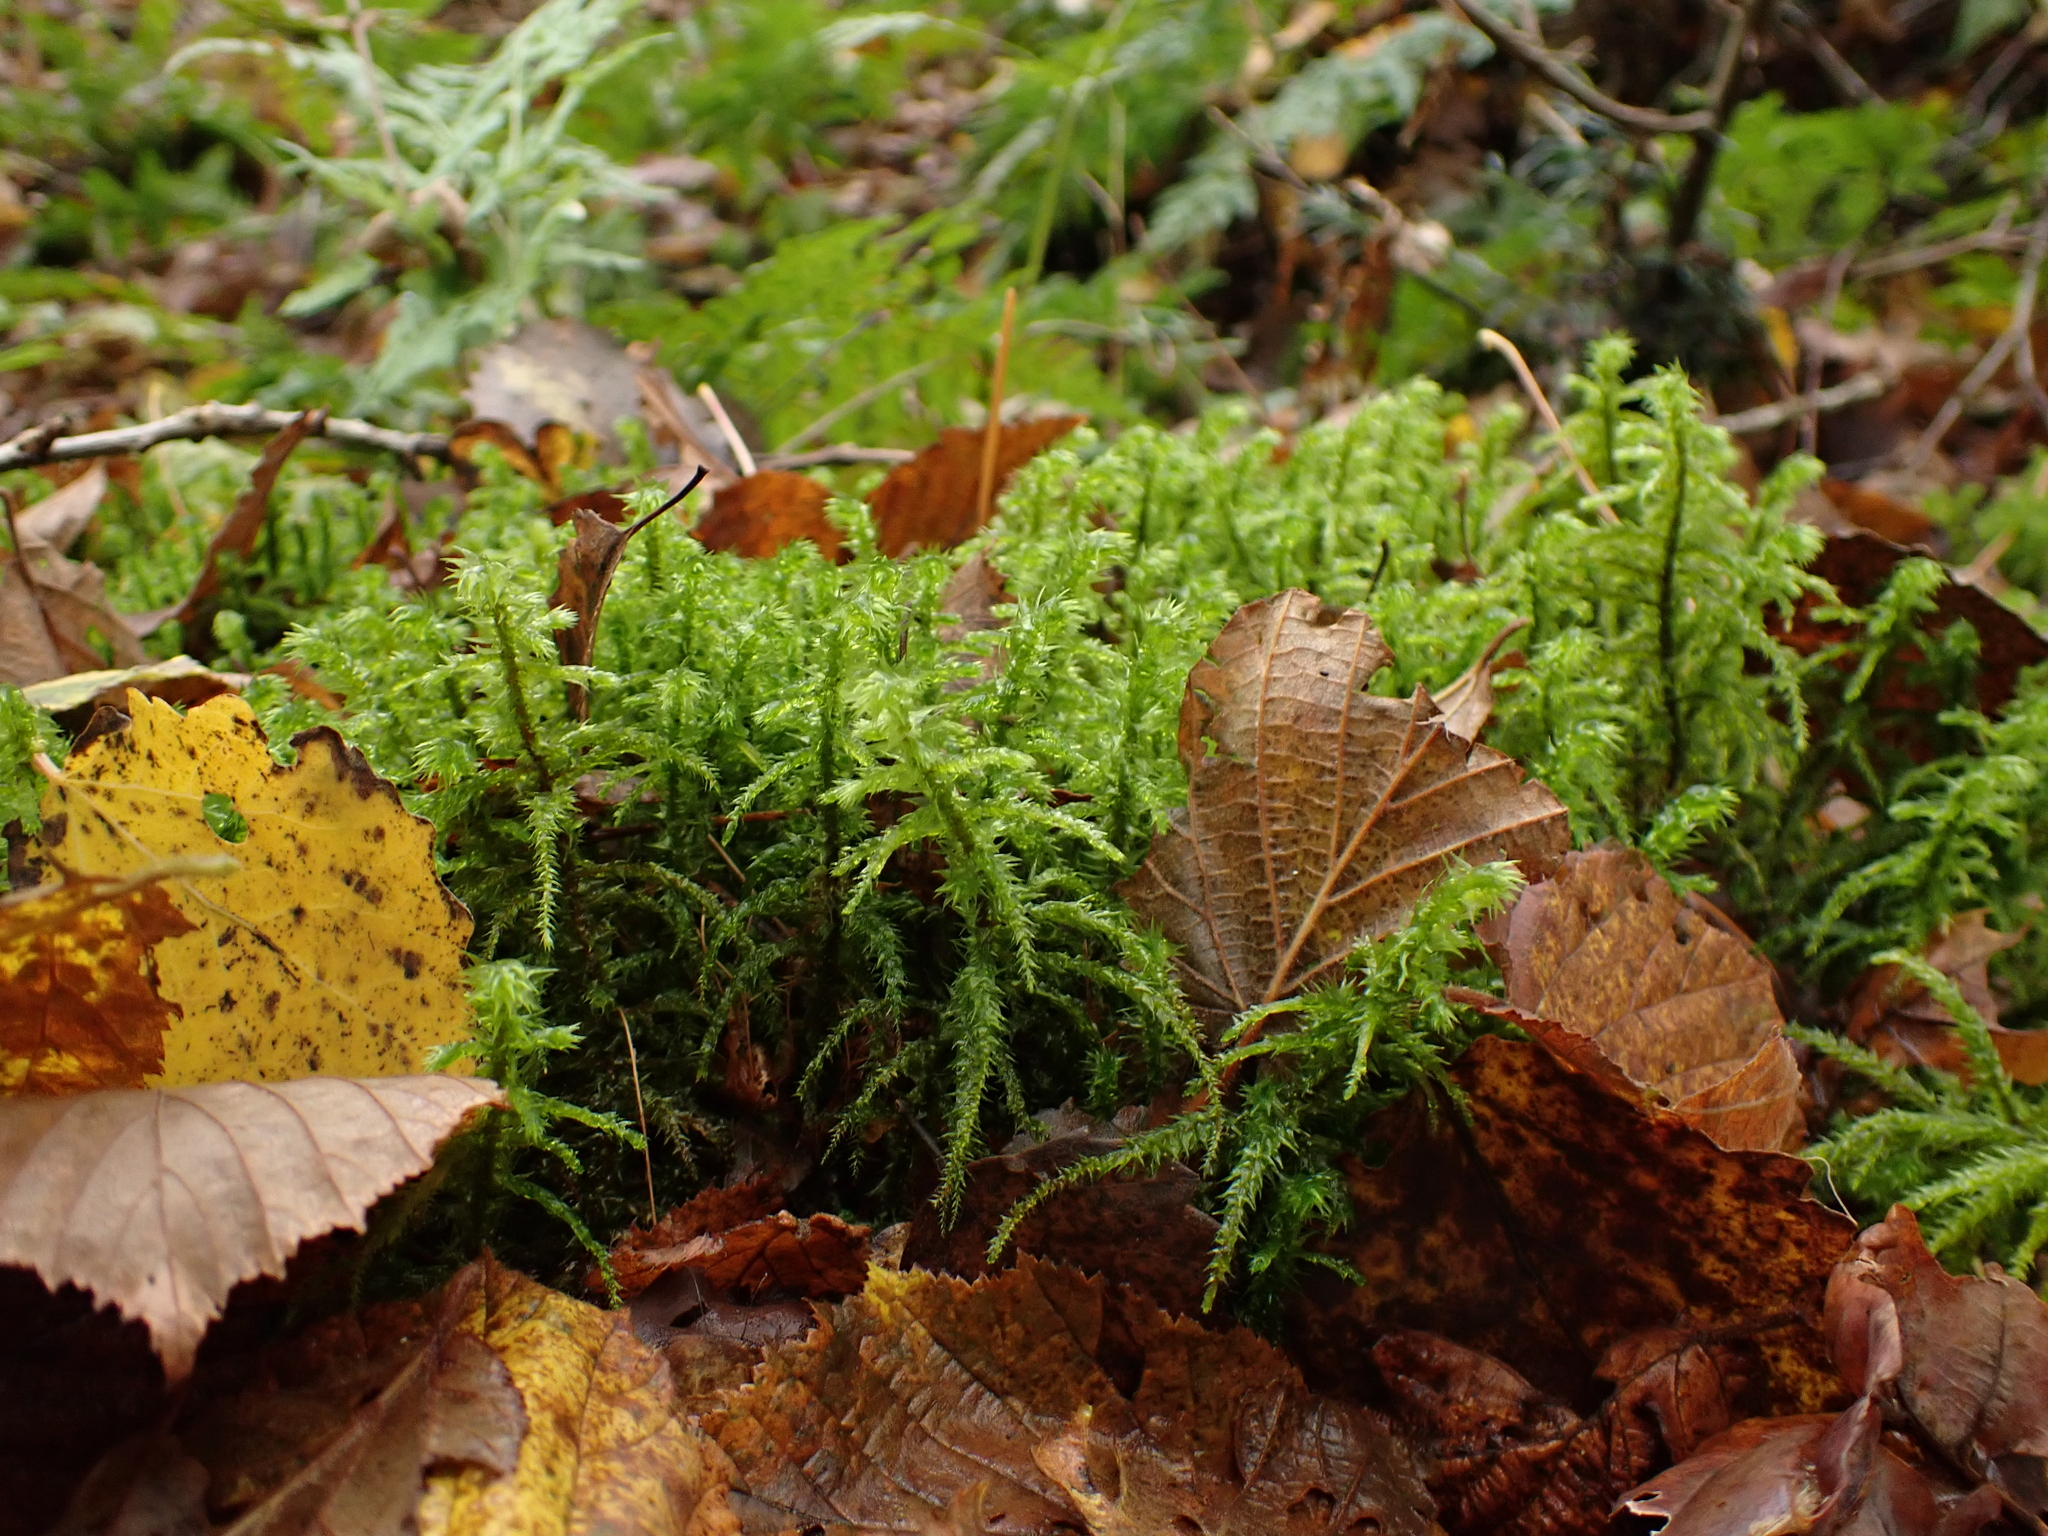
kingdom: Plantae
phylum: Bryophyta
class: Bryopsida
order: Hypnales
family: Hylocomiaceae
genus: Hylocomiadelphus
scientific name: Hylocomiadelphus triquetrus
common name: Rough goose neck moss
